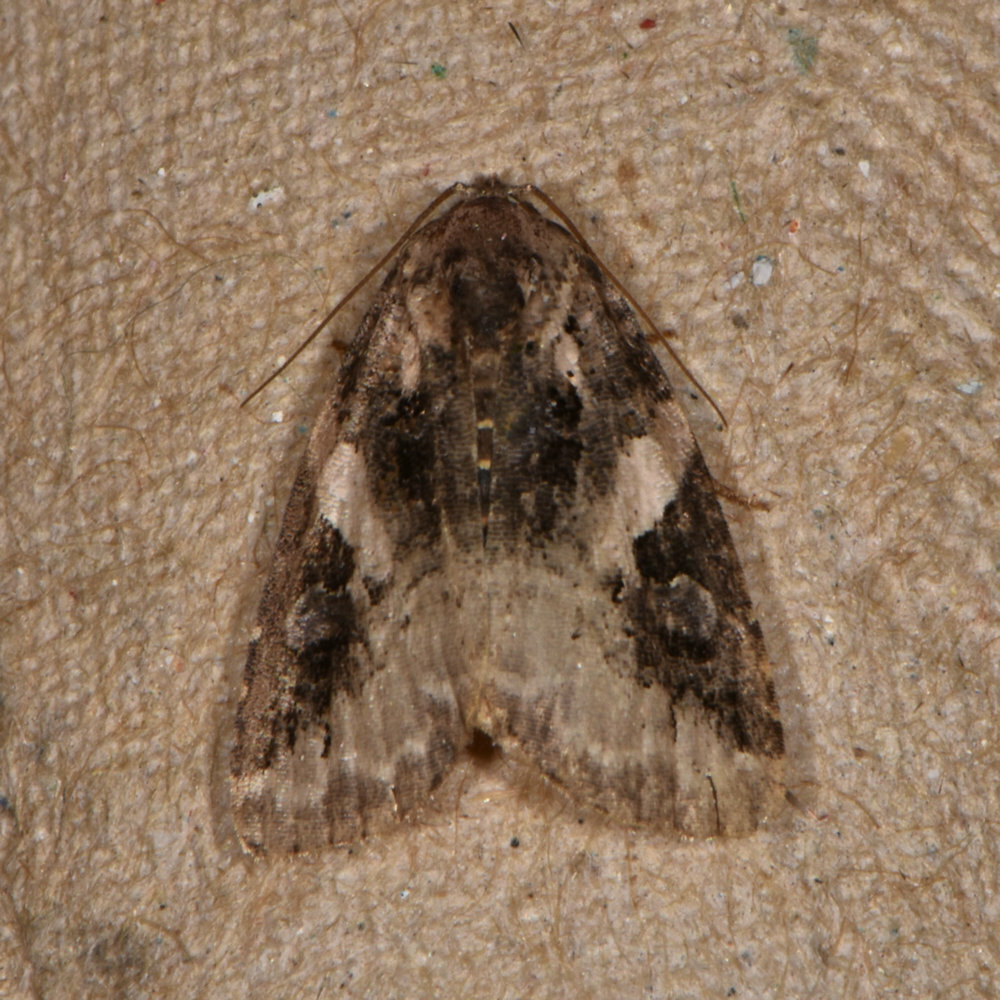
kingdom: Animalia
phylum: Arthropoda
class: Insecta
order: Lepidoptera
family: Noctuidae
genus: Pseudeustrotia
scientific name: Pseudeustrotia carneola
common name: Pink-barred lithacodia moth
